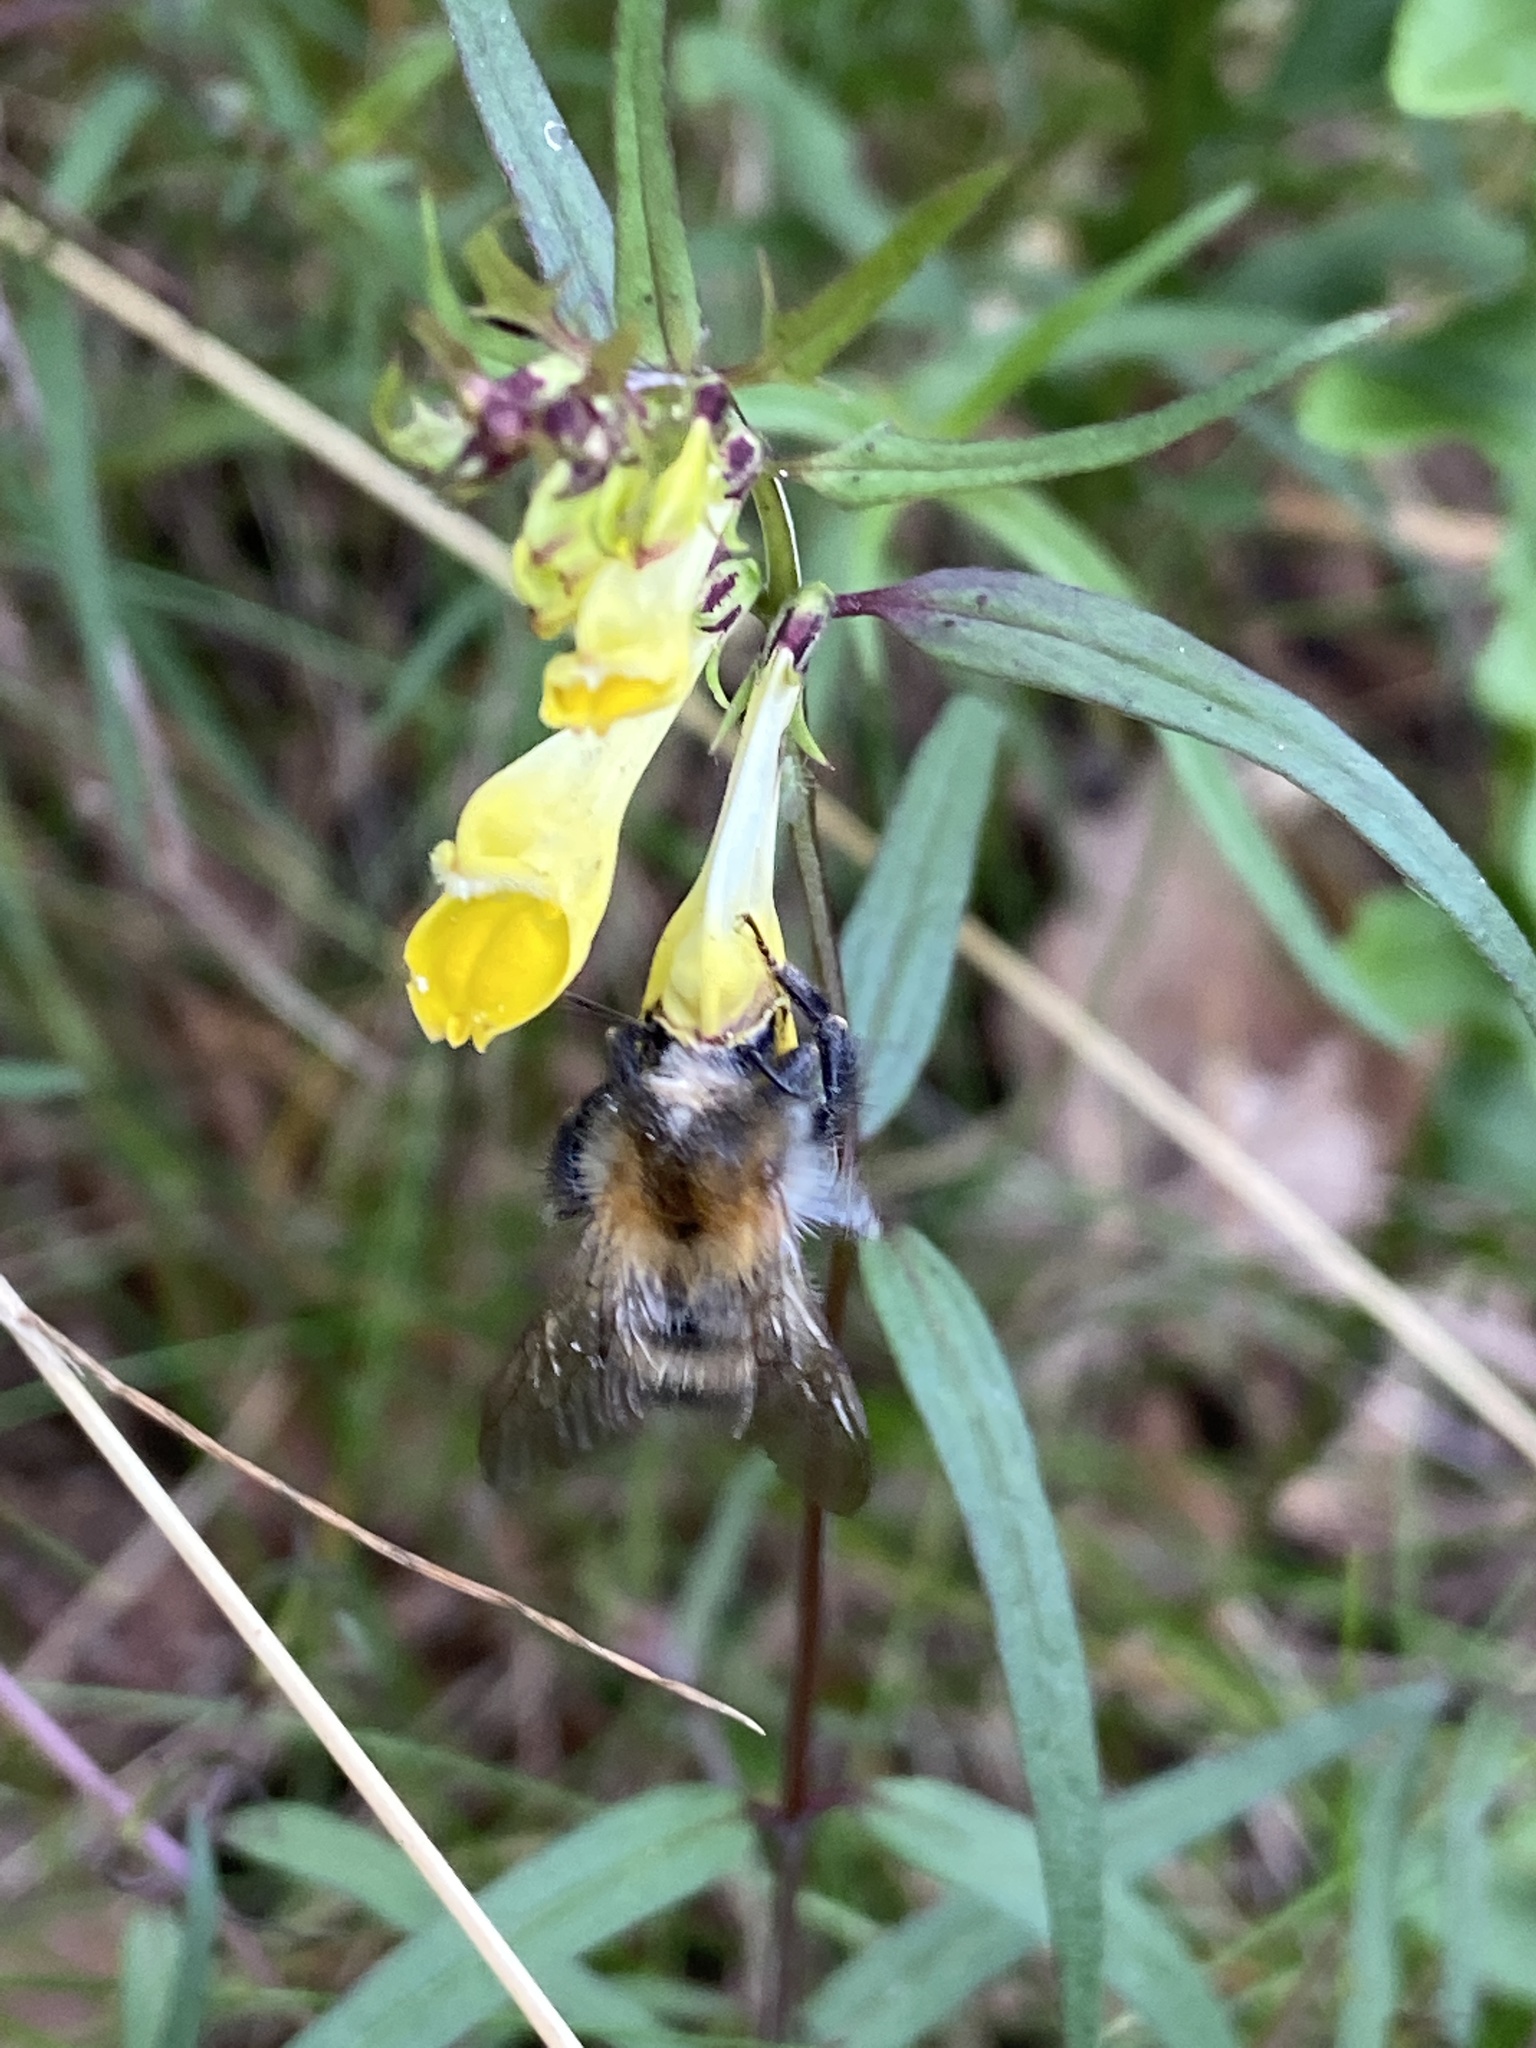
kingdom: Animalia
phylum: Arthropoda
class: Insecta
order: Hymenoptera
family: Apidae
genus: Bombus
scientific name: Bombus pascuorum
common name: Common carder bee
